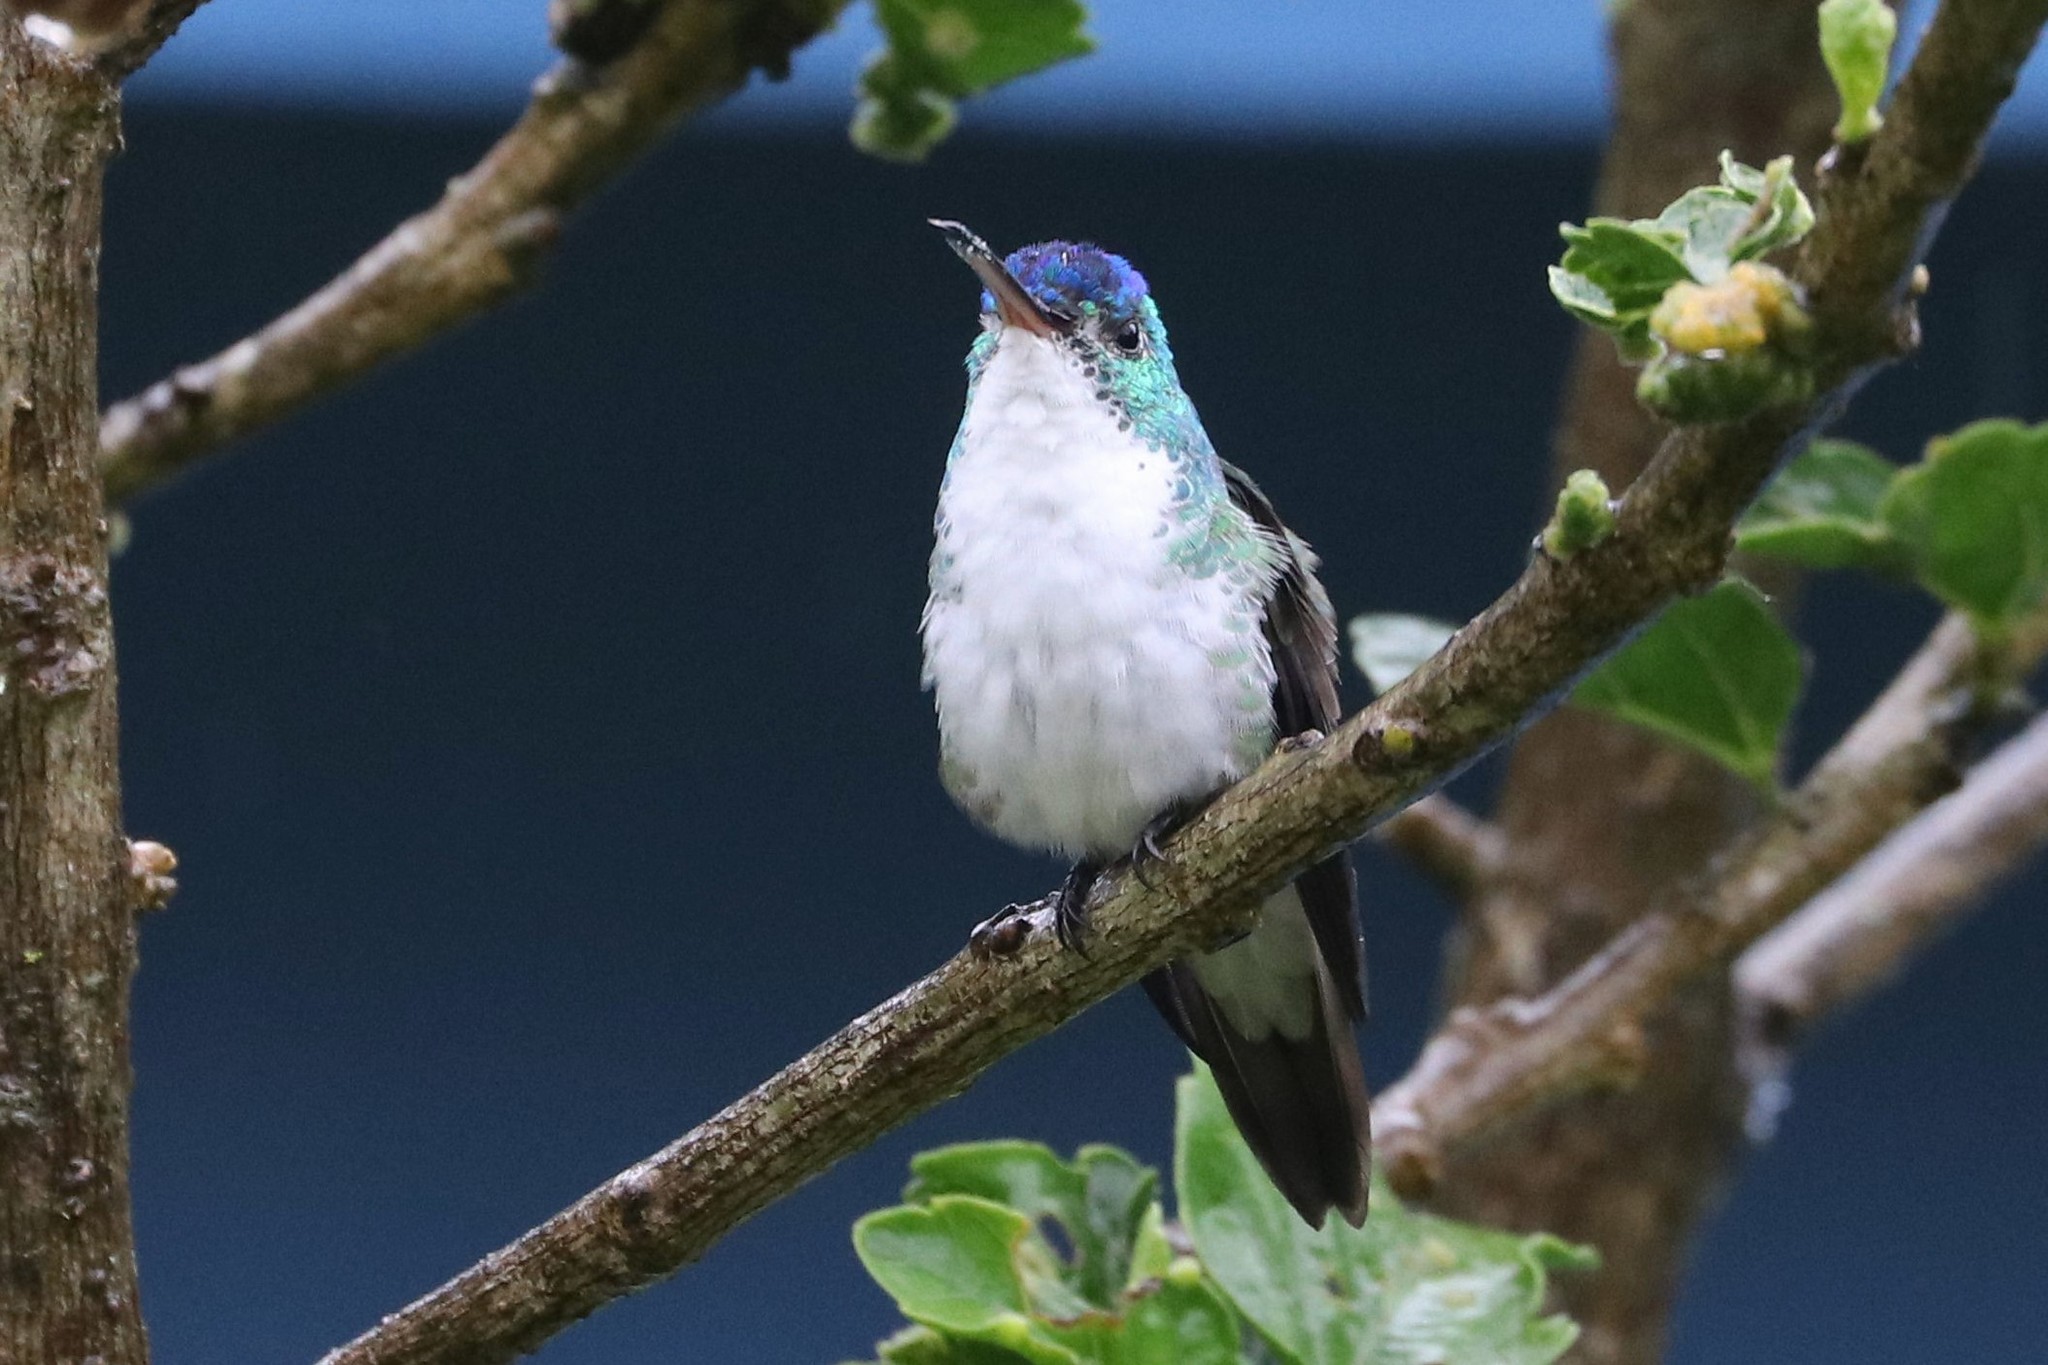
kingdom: Animalia
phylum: Chordata
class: Aves
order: Apodiformes
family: Trochilidae
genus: Uranomitra
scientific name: Uranomitra franciae
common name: Andean emerald
